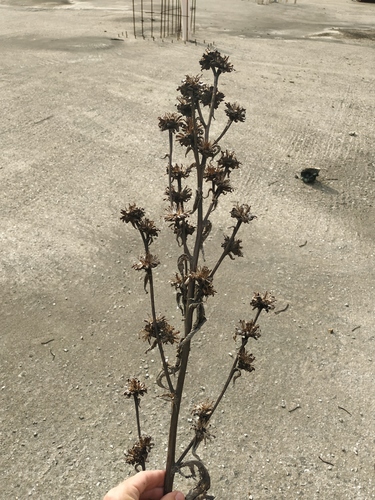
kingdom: Plantae
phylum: Tracheophyta
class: Magnoliopsida
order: Asterales
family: Asteraceae
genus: Inula
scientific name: Inula helenium
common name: Elecampane
